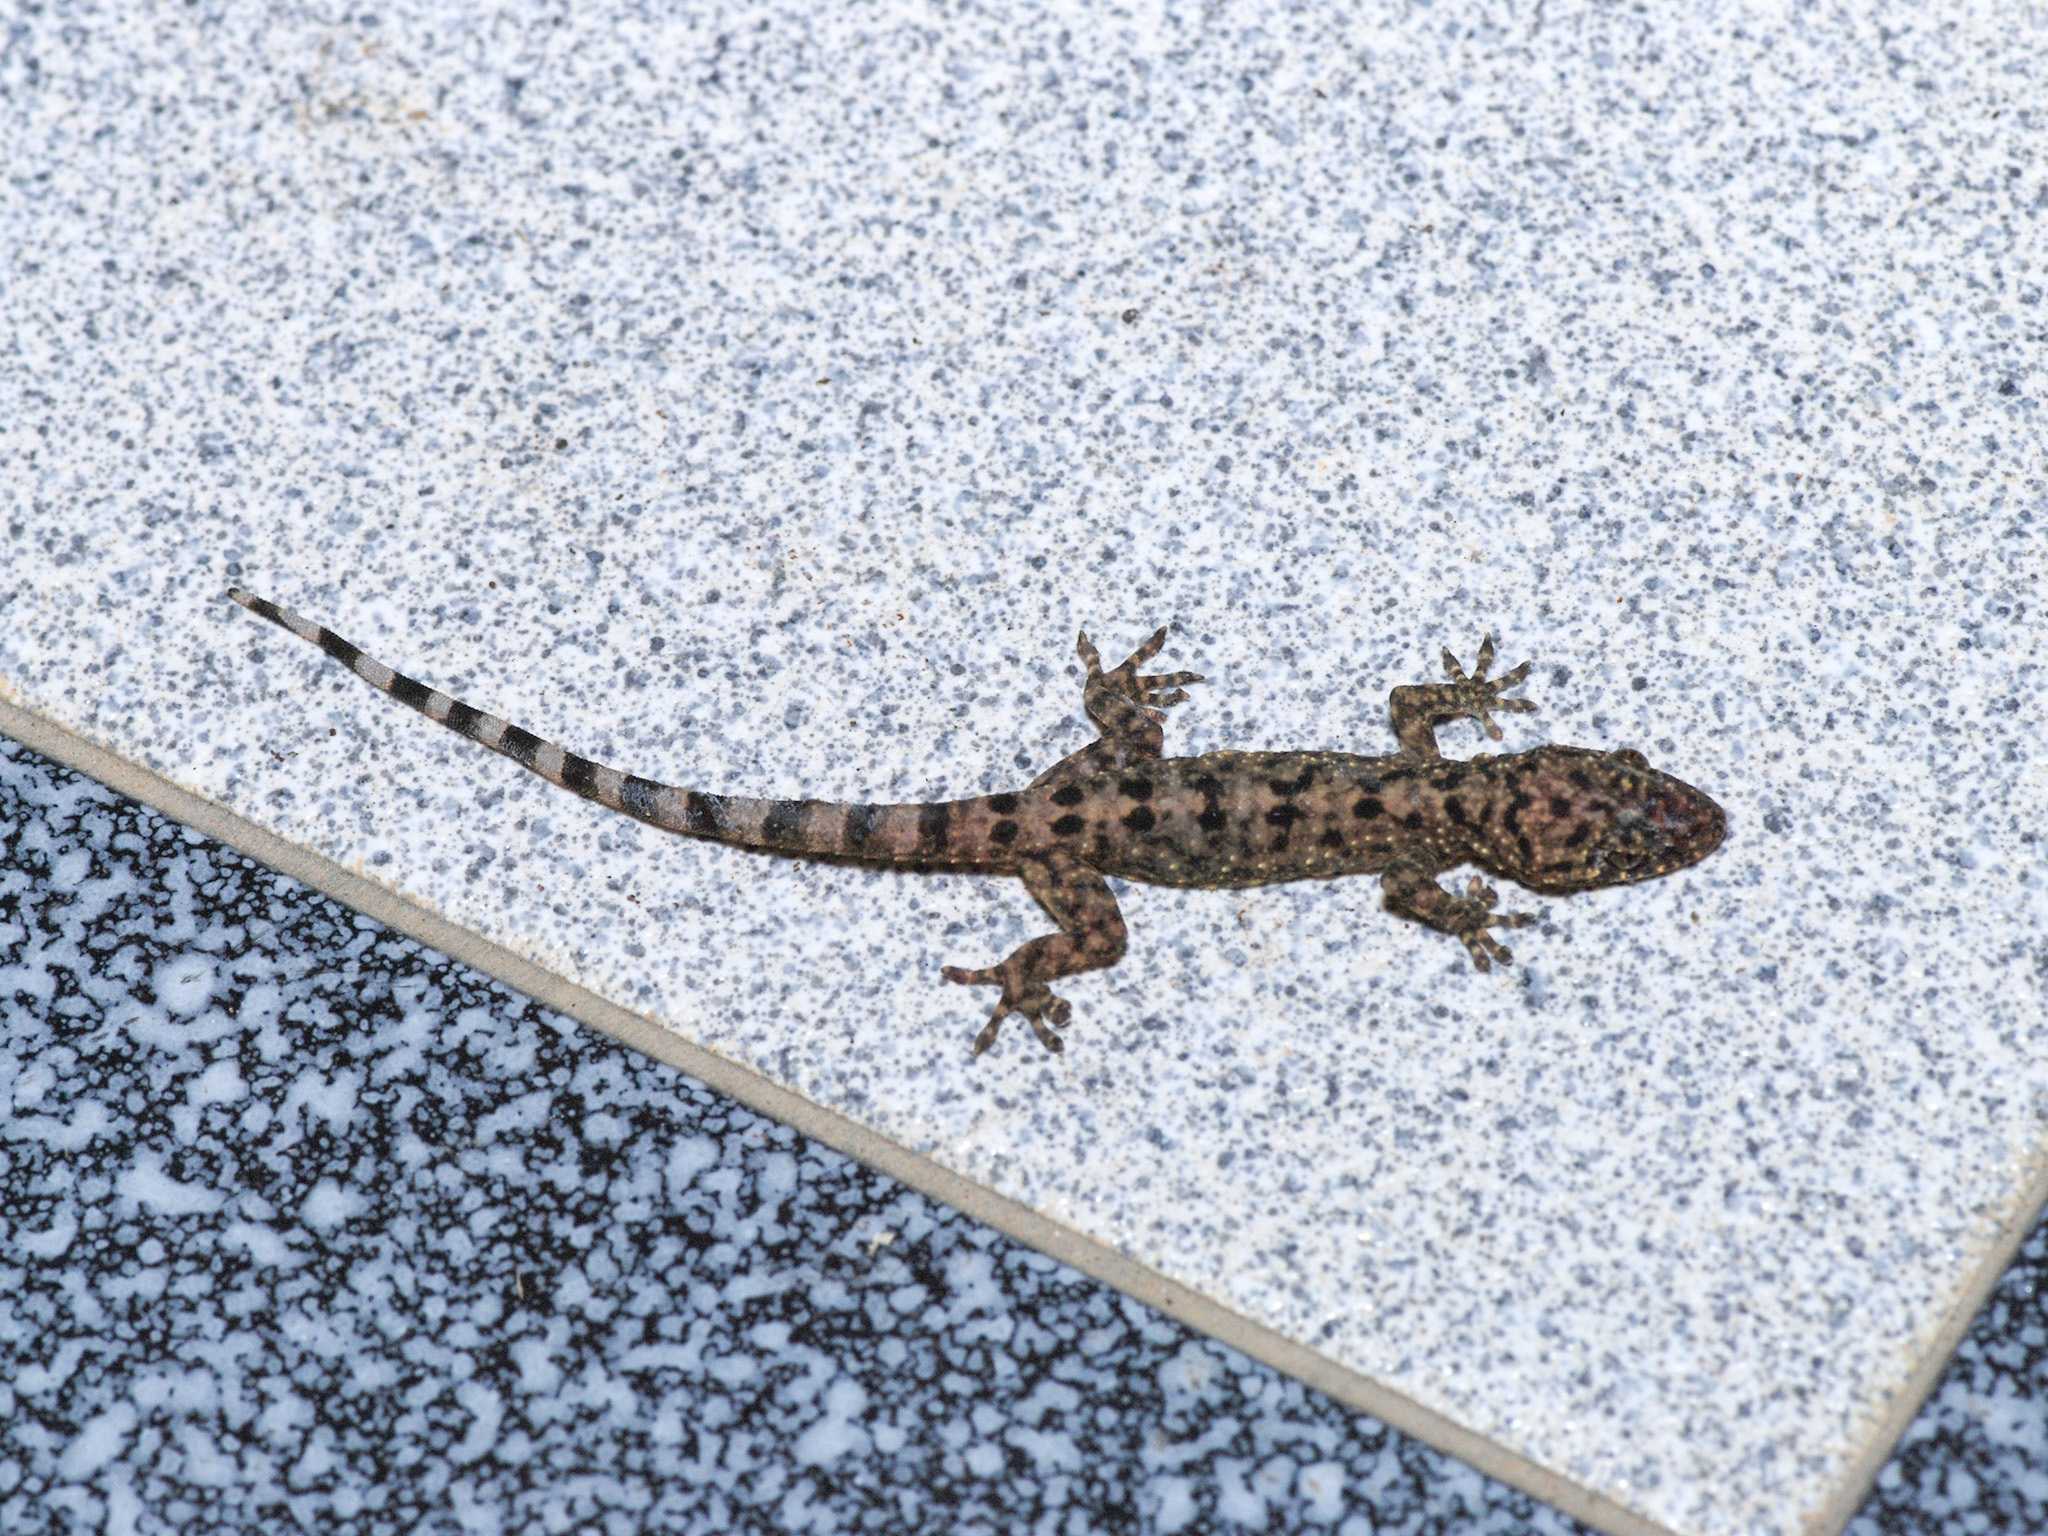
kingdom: Animalia
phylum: Chordata
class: Squamata
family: Gekkonidae
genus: Gekko
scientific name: Gekko monarchus
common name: Spotted house gecko
